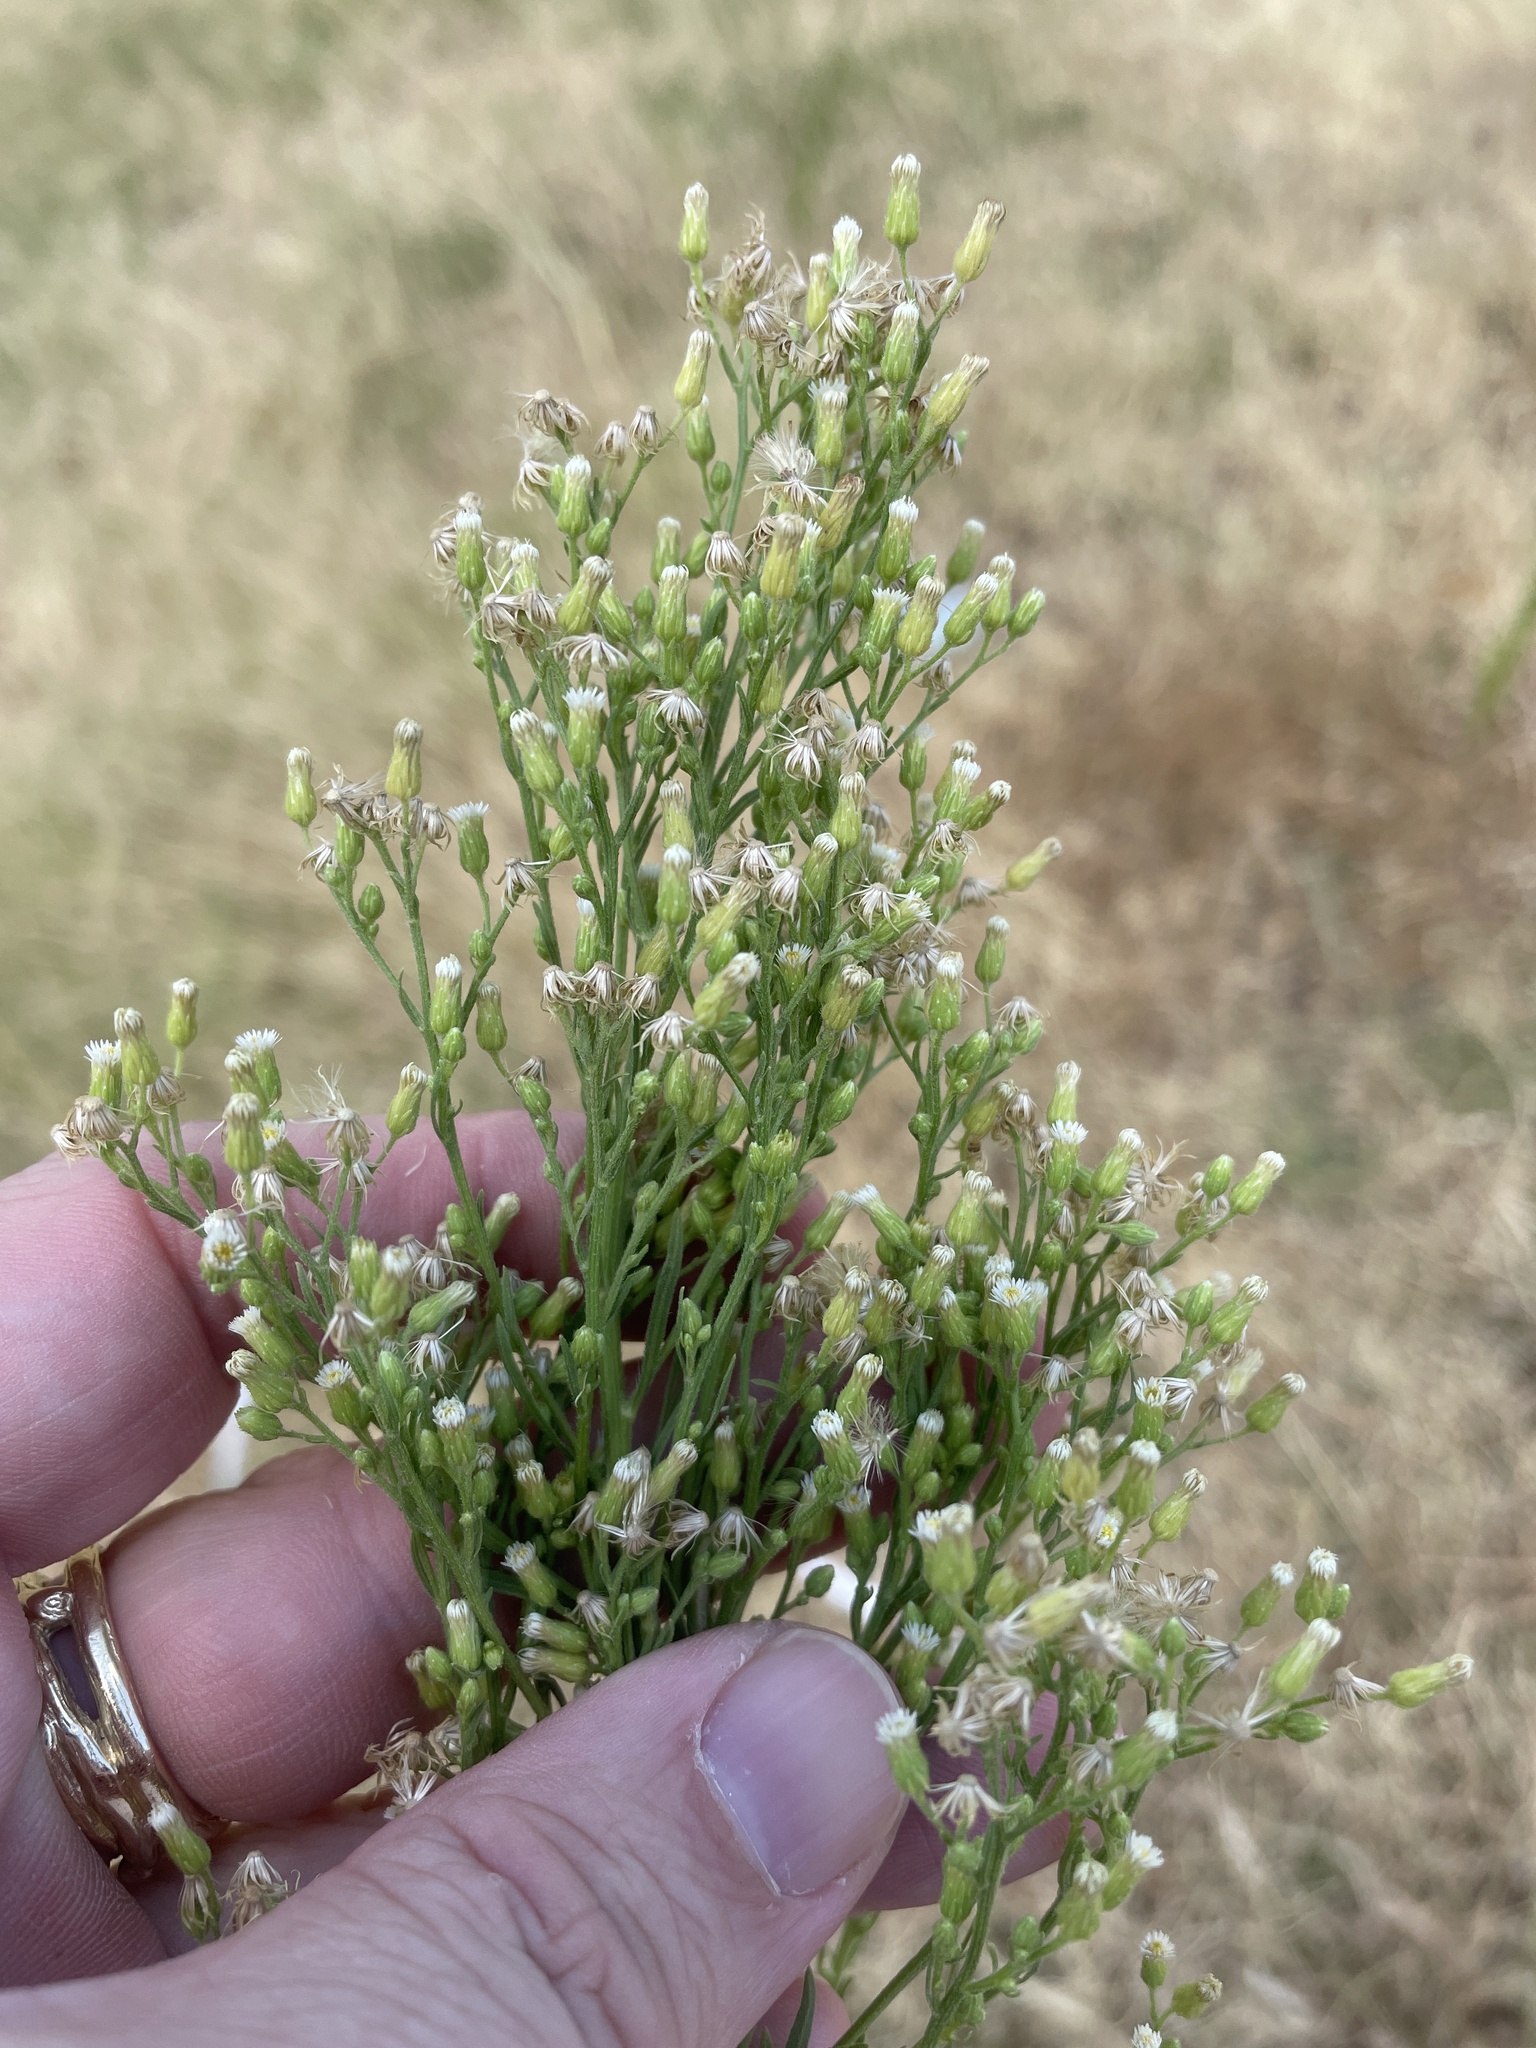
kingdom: Plantae
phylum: Tracheophyta
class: Magnoliopsida
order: Asterales
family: Asteraceae
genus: Erigeron
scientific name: Erigeron canadensis
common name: Canadian fleabane
